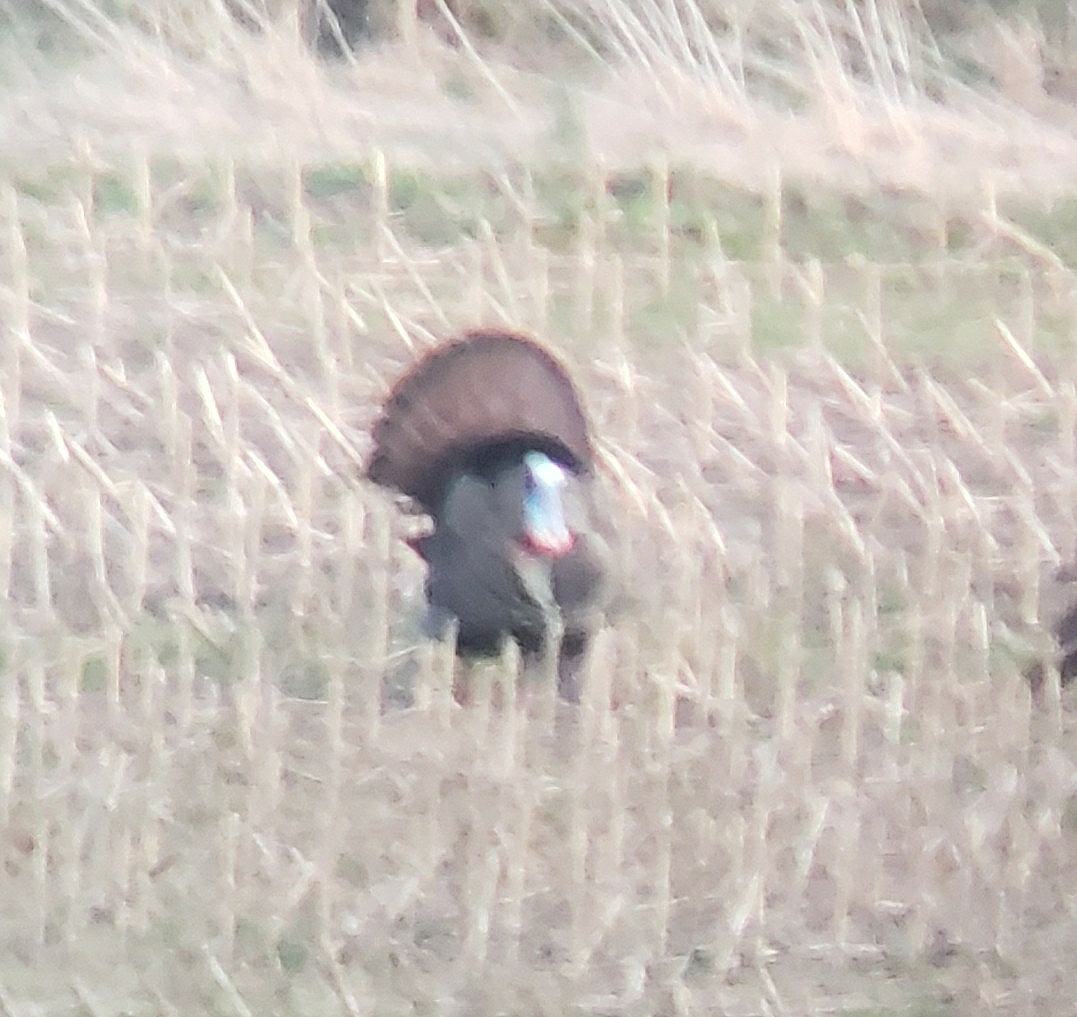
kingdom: Animalia
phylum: Chordata
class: Aves
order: Galliformes
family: Phasianidae
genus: Meleagris
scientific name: Meleagris gallopavo
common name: Wild turkey
